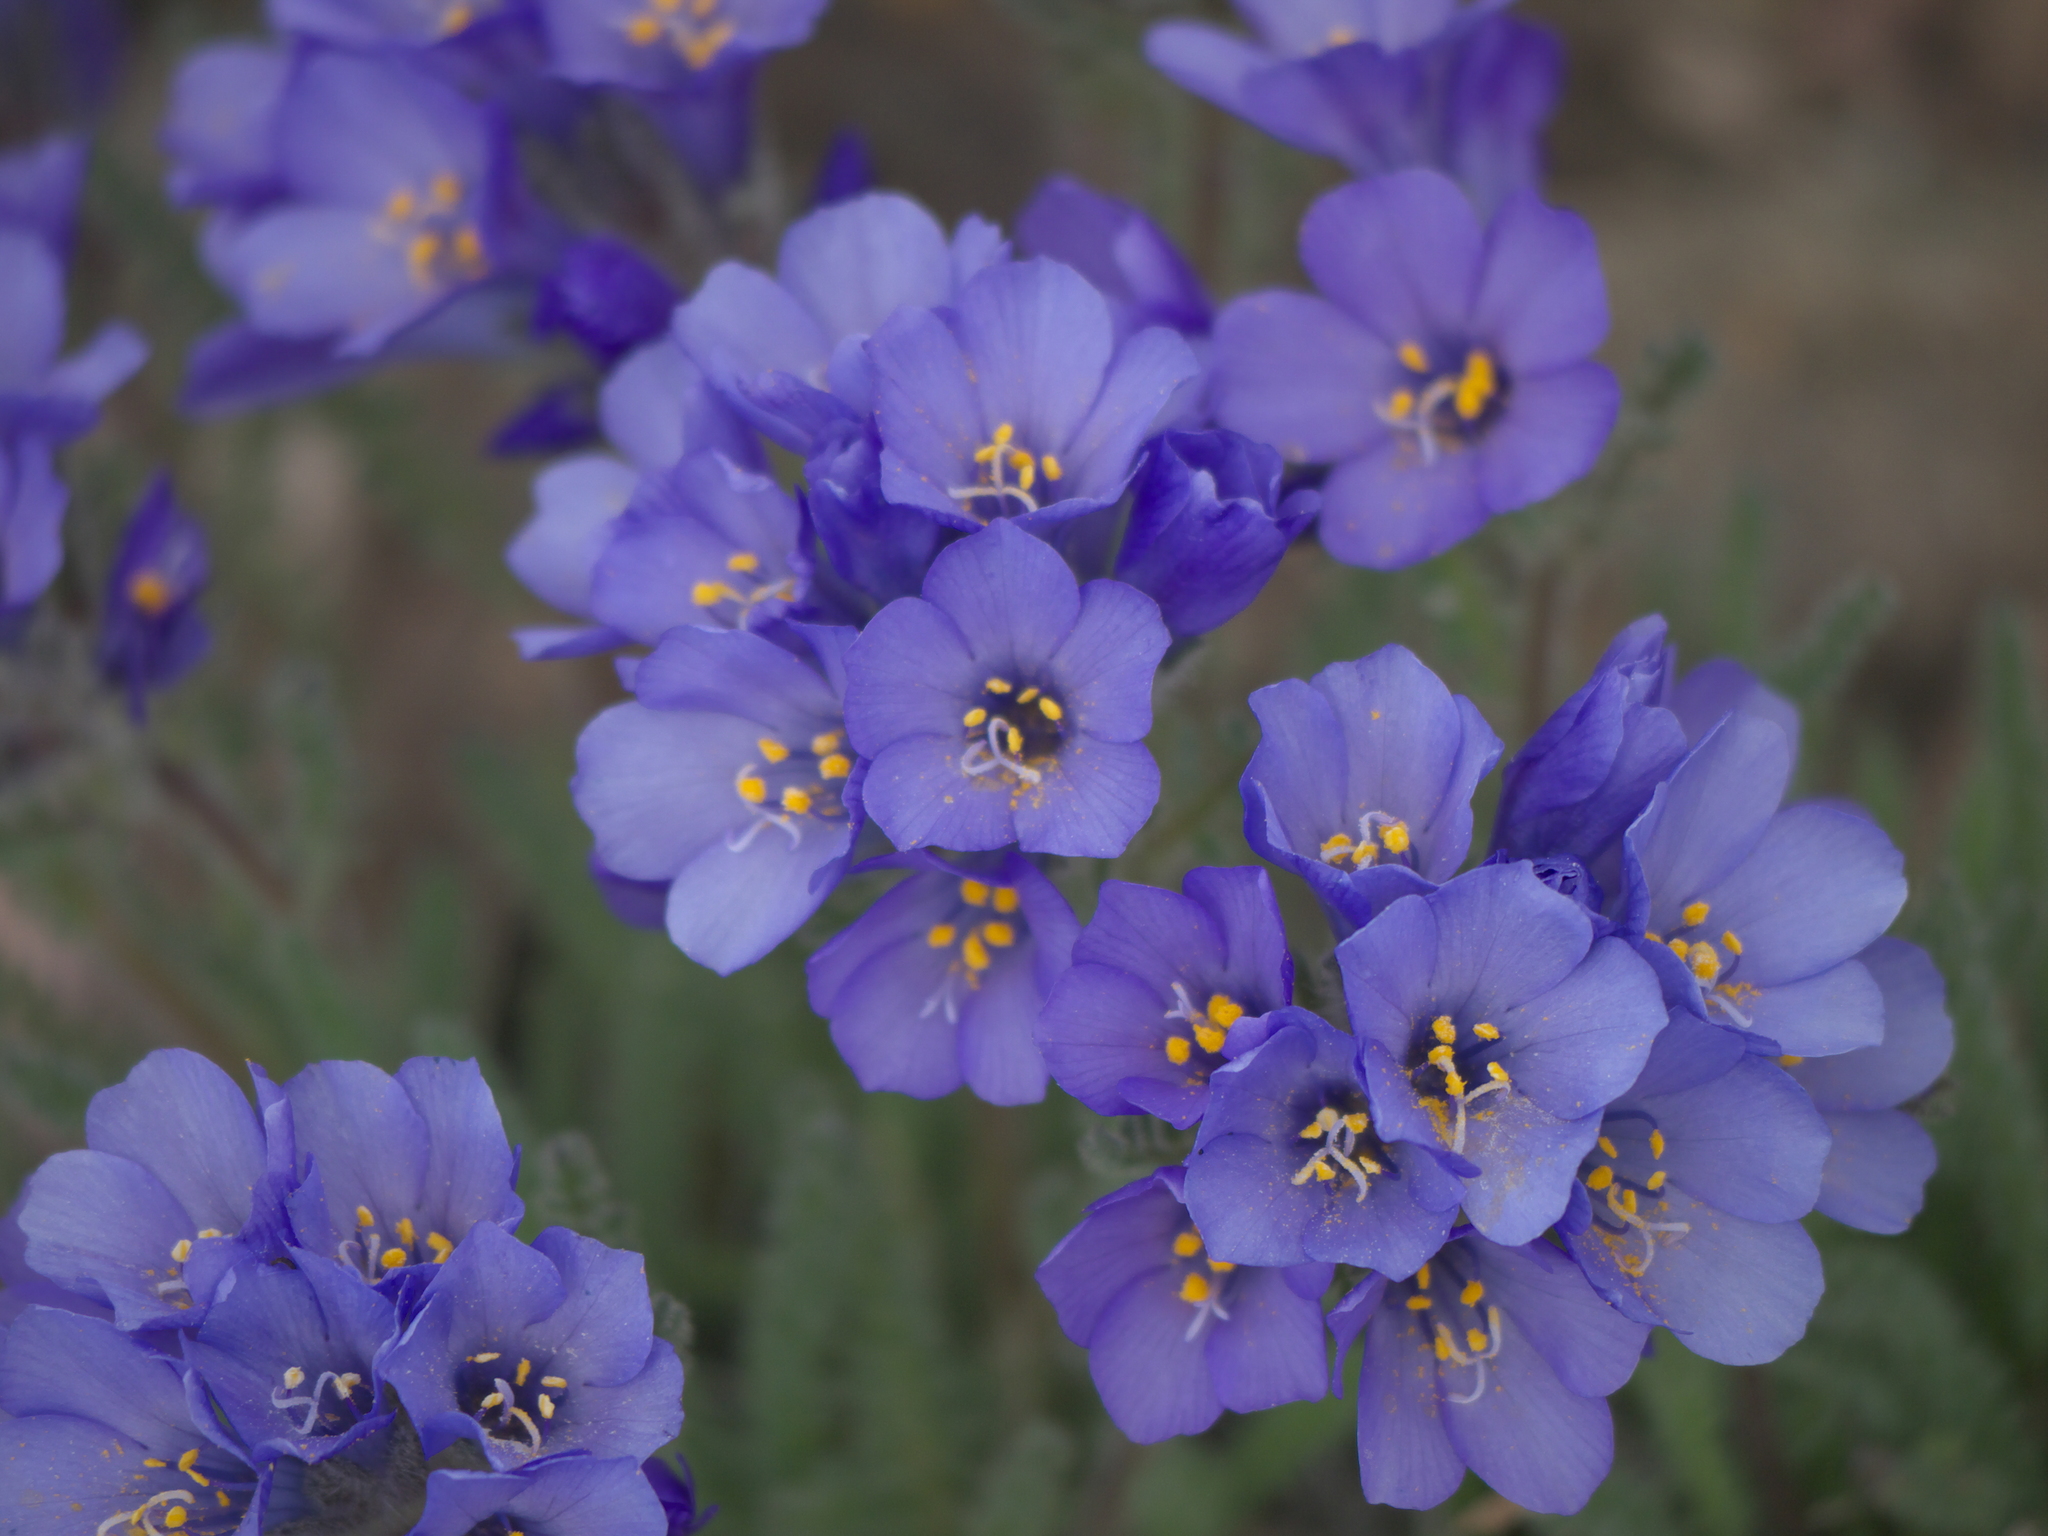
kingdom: Plantae
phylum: Tracheophyta
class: Magnoliopsida
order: Ericales
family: Polemoniaceae
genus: Polemonium
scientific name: Polemonium viscosum
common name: Skunk jacob's-ladder
